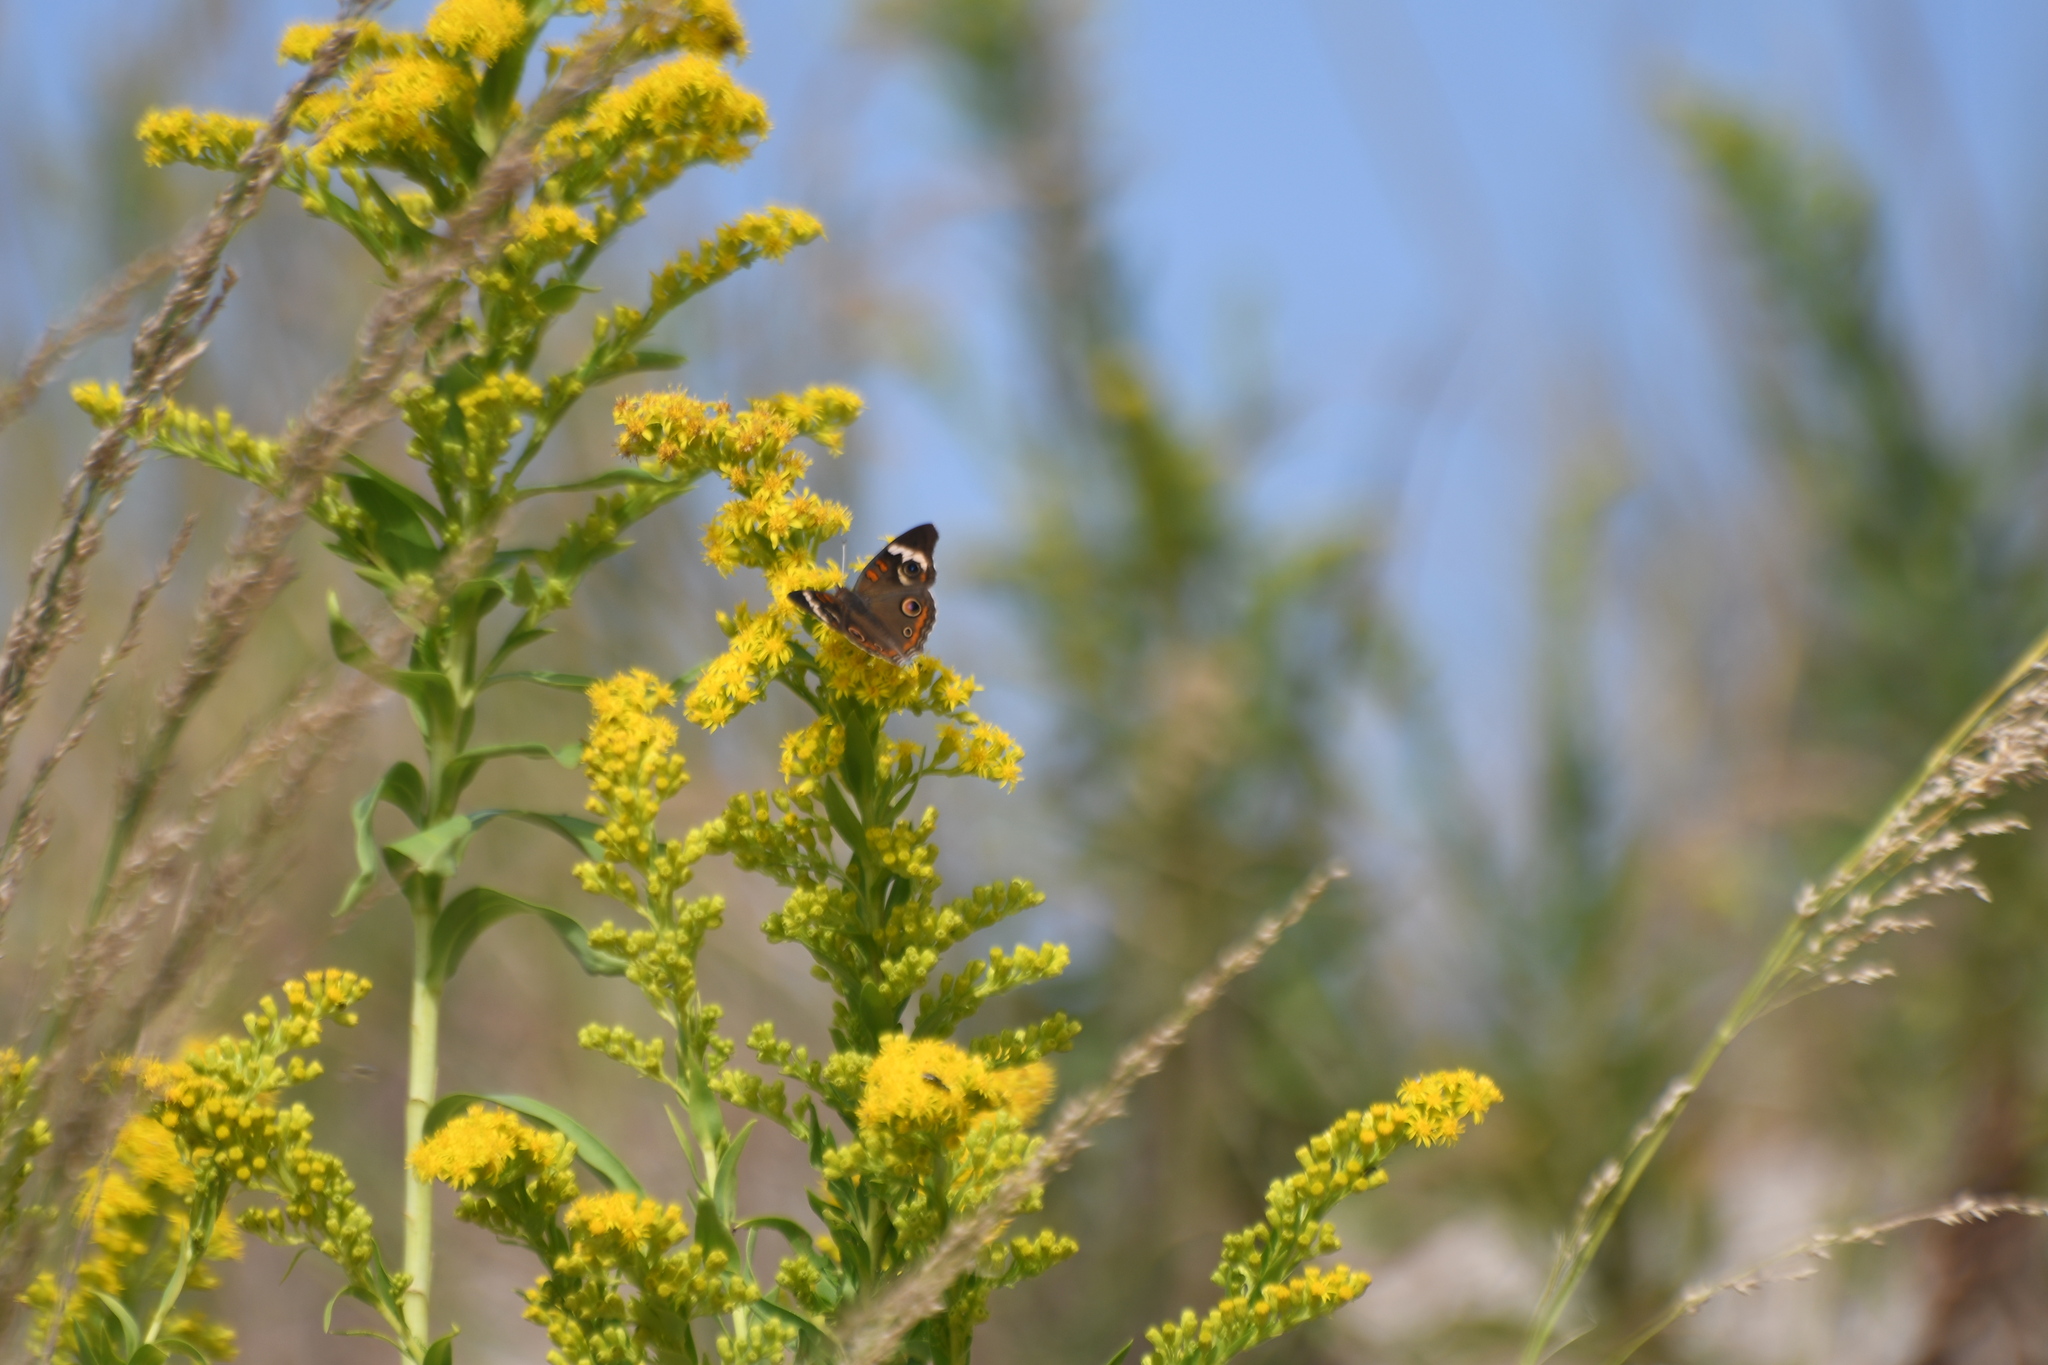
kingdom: Animalia
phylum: Arthropoda
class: Insecta
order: Lepidoptera
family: Nymphalidae
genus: Junonia
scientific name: Junonia coenia
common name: Common buckeye
